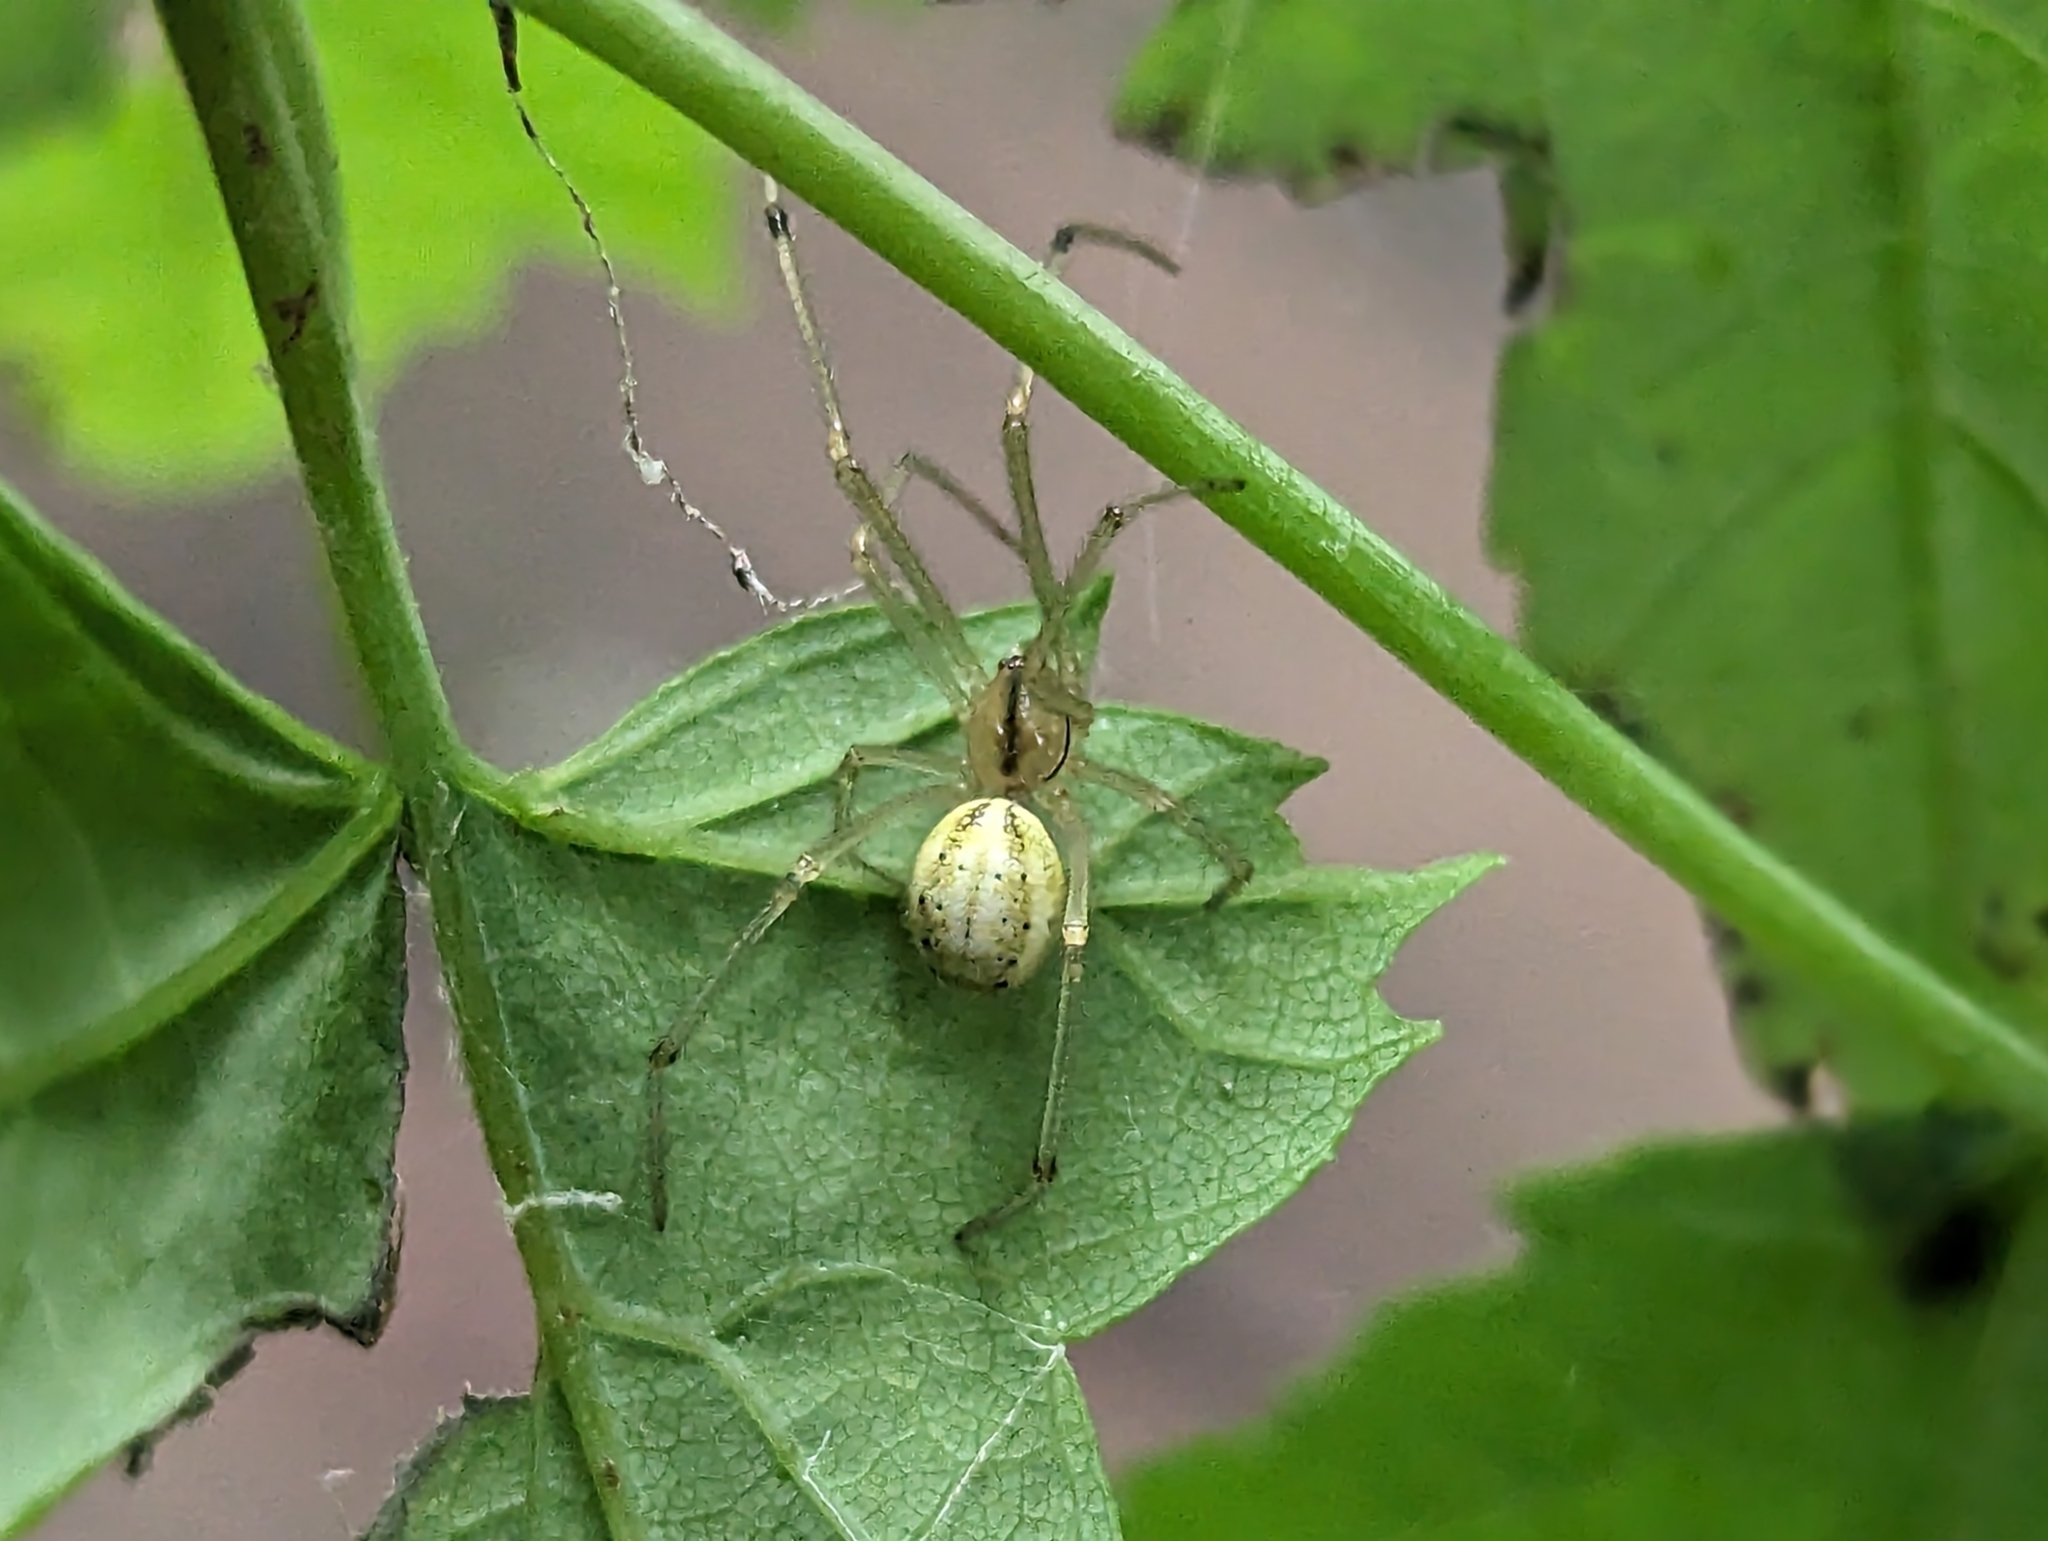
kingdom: Animalia
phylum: Arthropoda
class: Arachnida
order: Araneae
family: Theridiidae
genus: Enoplognatha
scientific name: Enoplognatha ovata
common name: Common candy-striped spider
